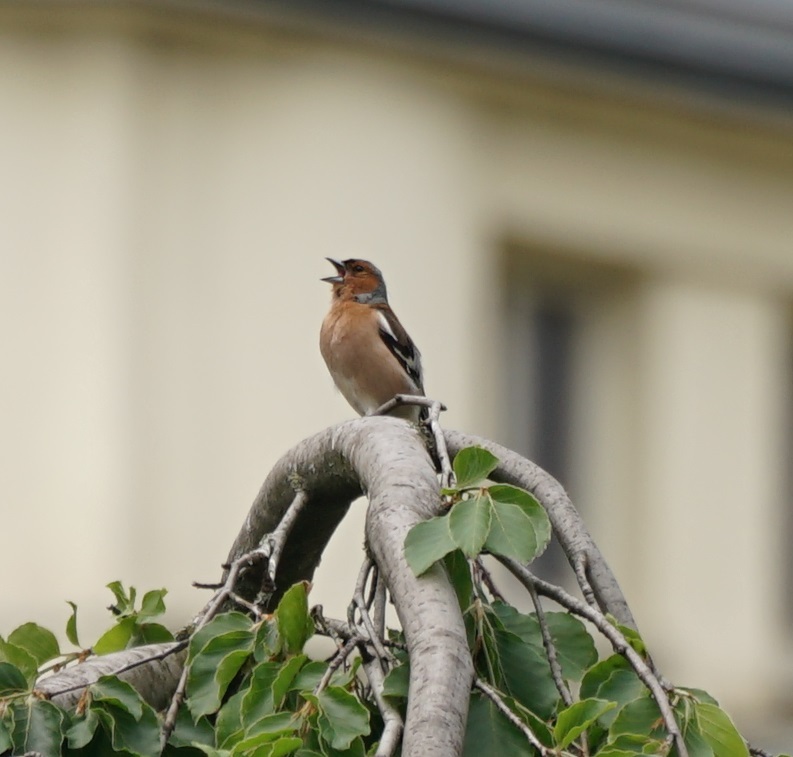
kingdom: Animalia
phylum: Chordata
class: Aves
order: Passeriformes
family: Fringillidae
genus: Fringilla
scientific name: Fringilla coelebs
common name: Common chaffinch
